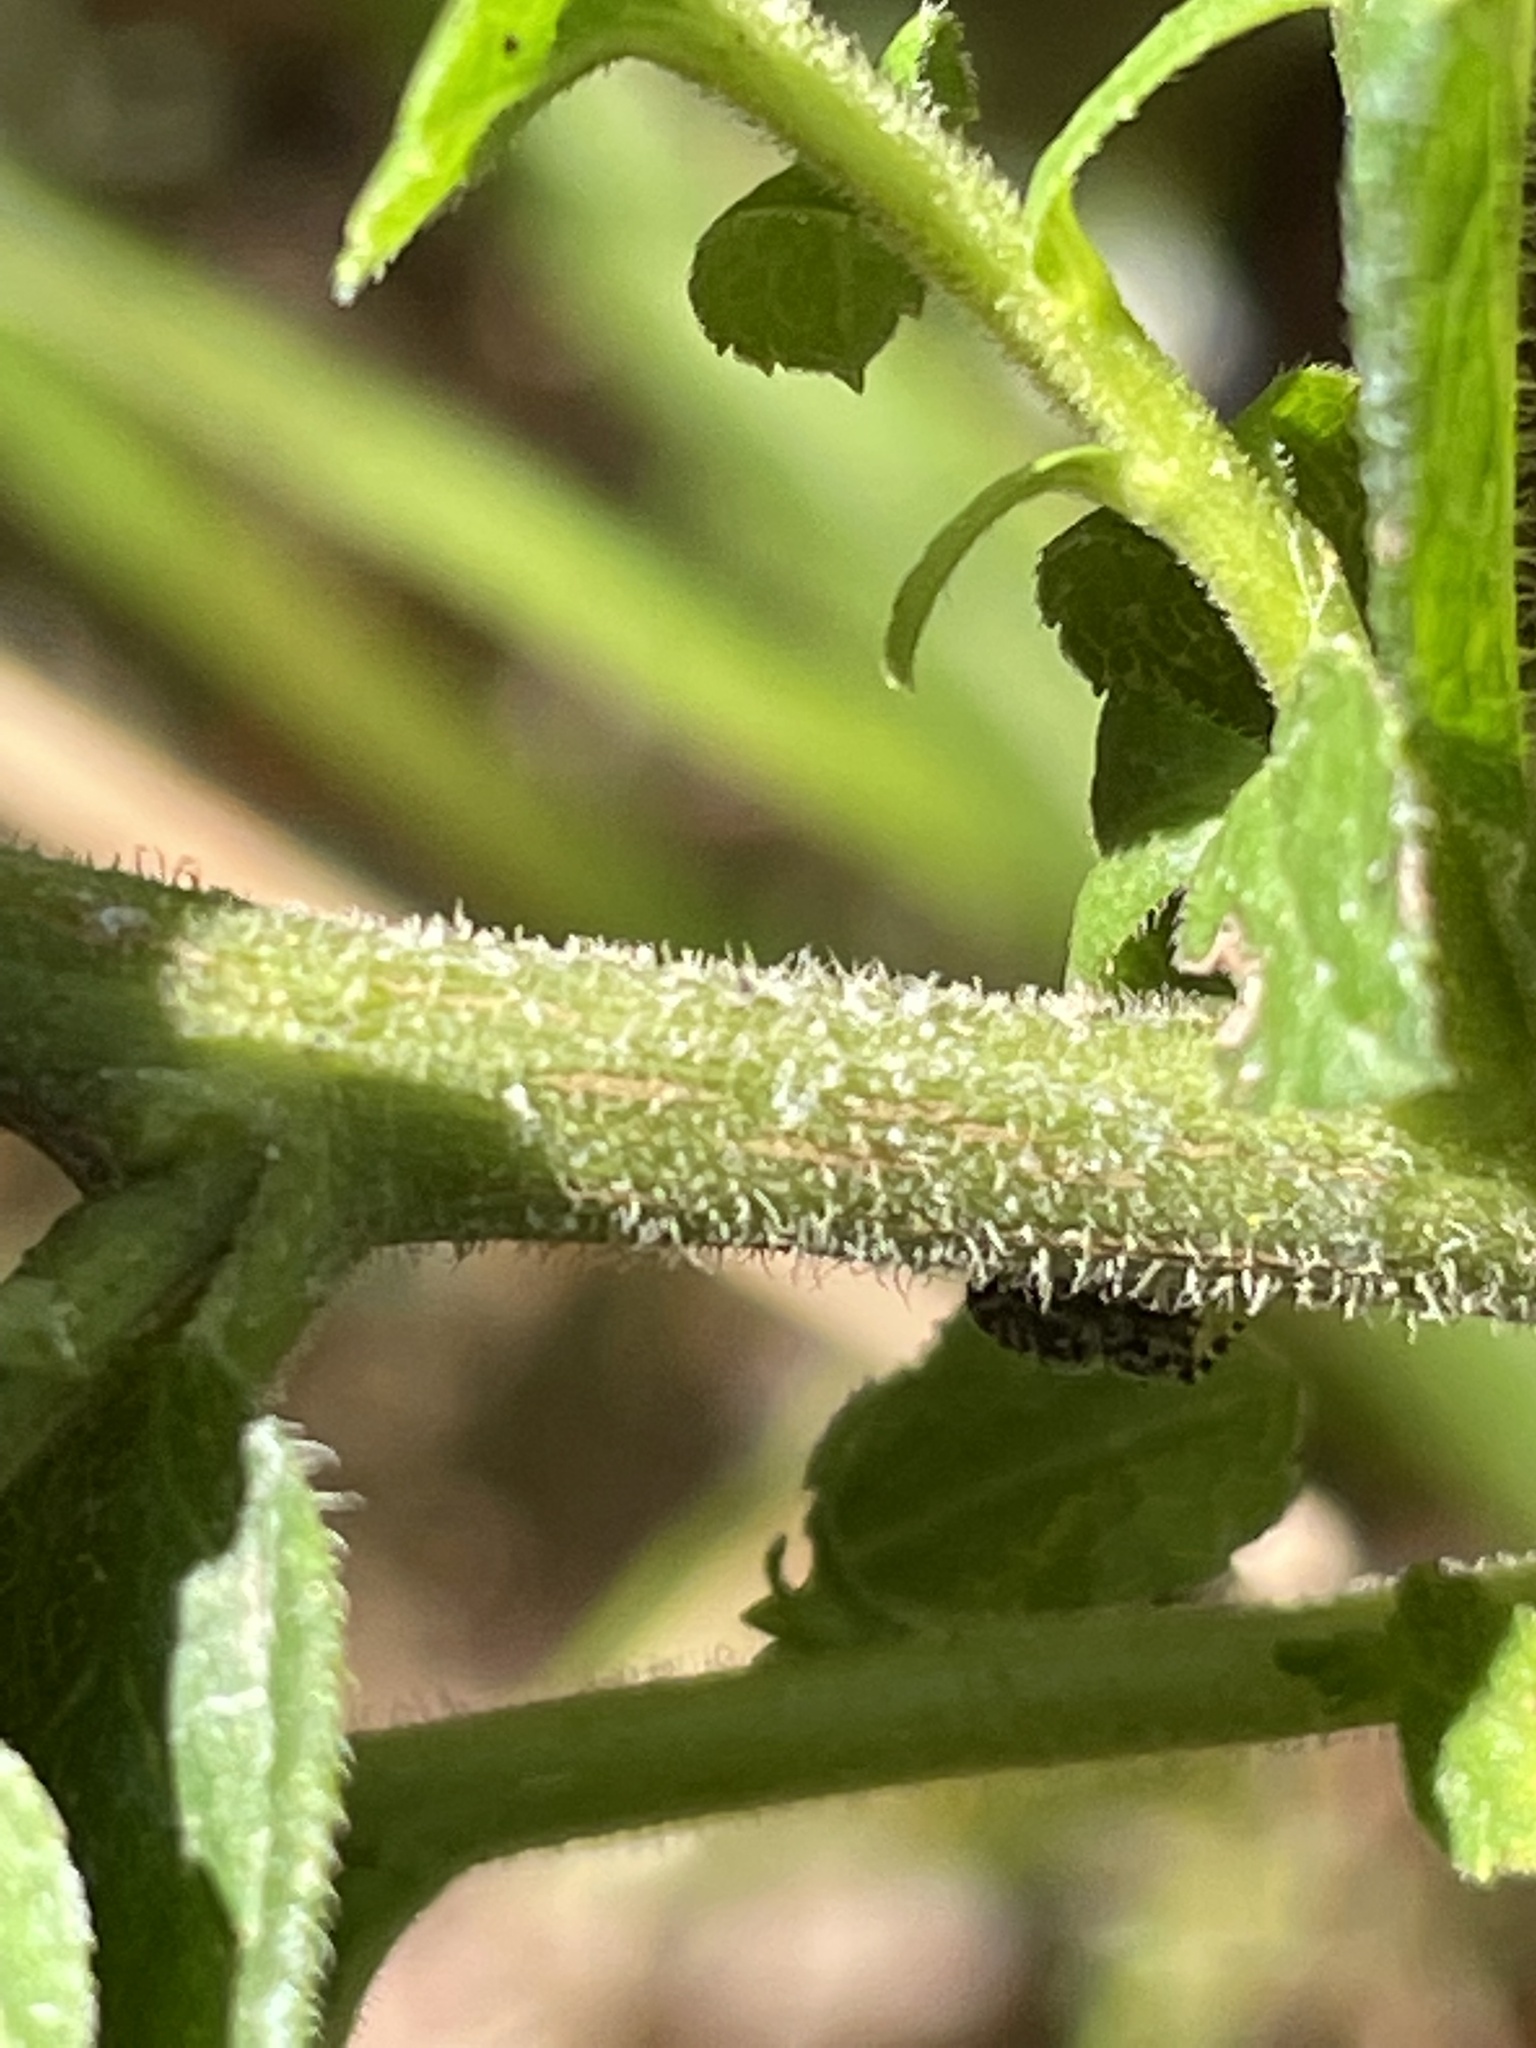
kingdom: Plantae
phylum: Tracheophyta
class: Magnoliopsida
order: Asterales
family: Asteraceae
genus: Solidago
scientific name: Solidago rugosa
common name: Rough-stemmed goldenrod
